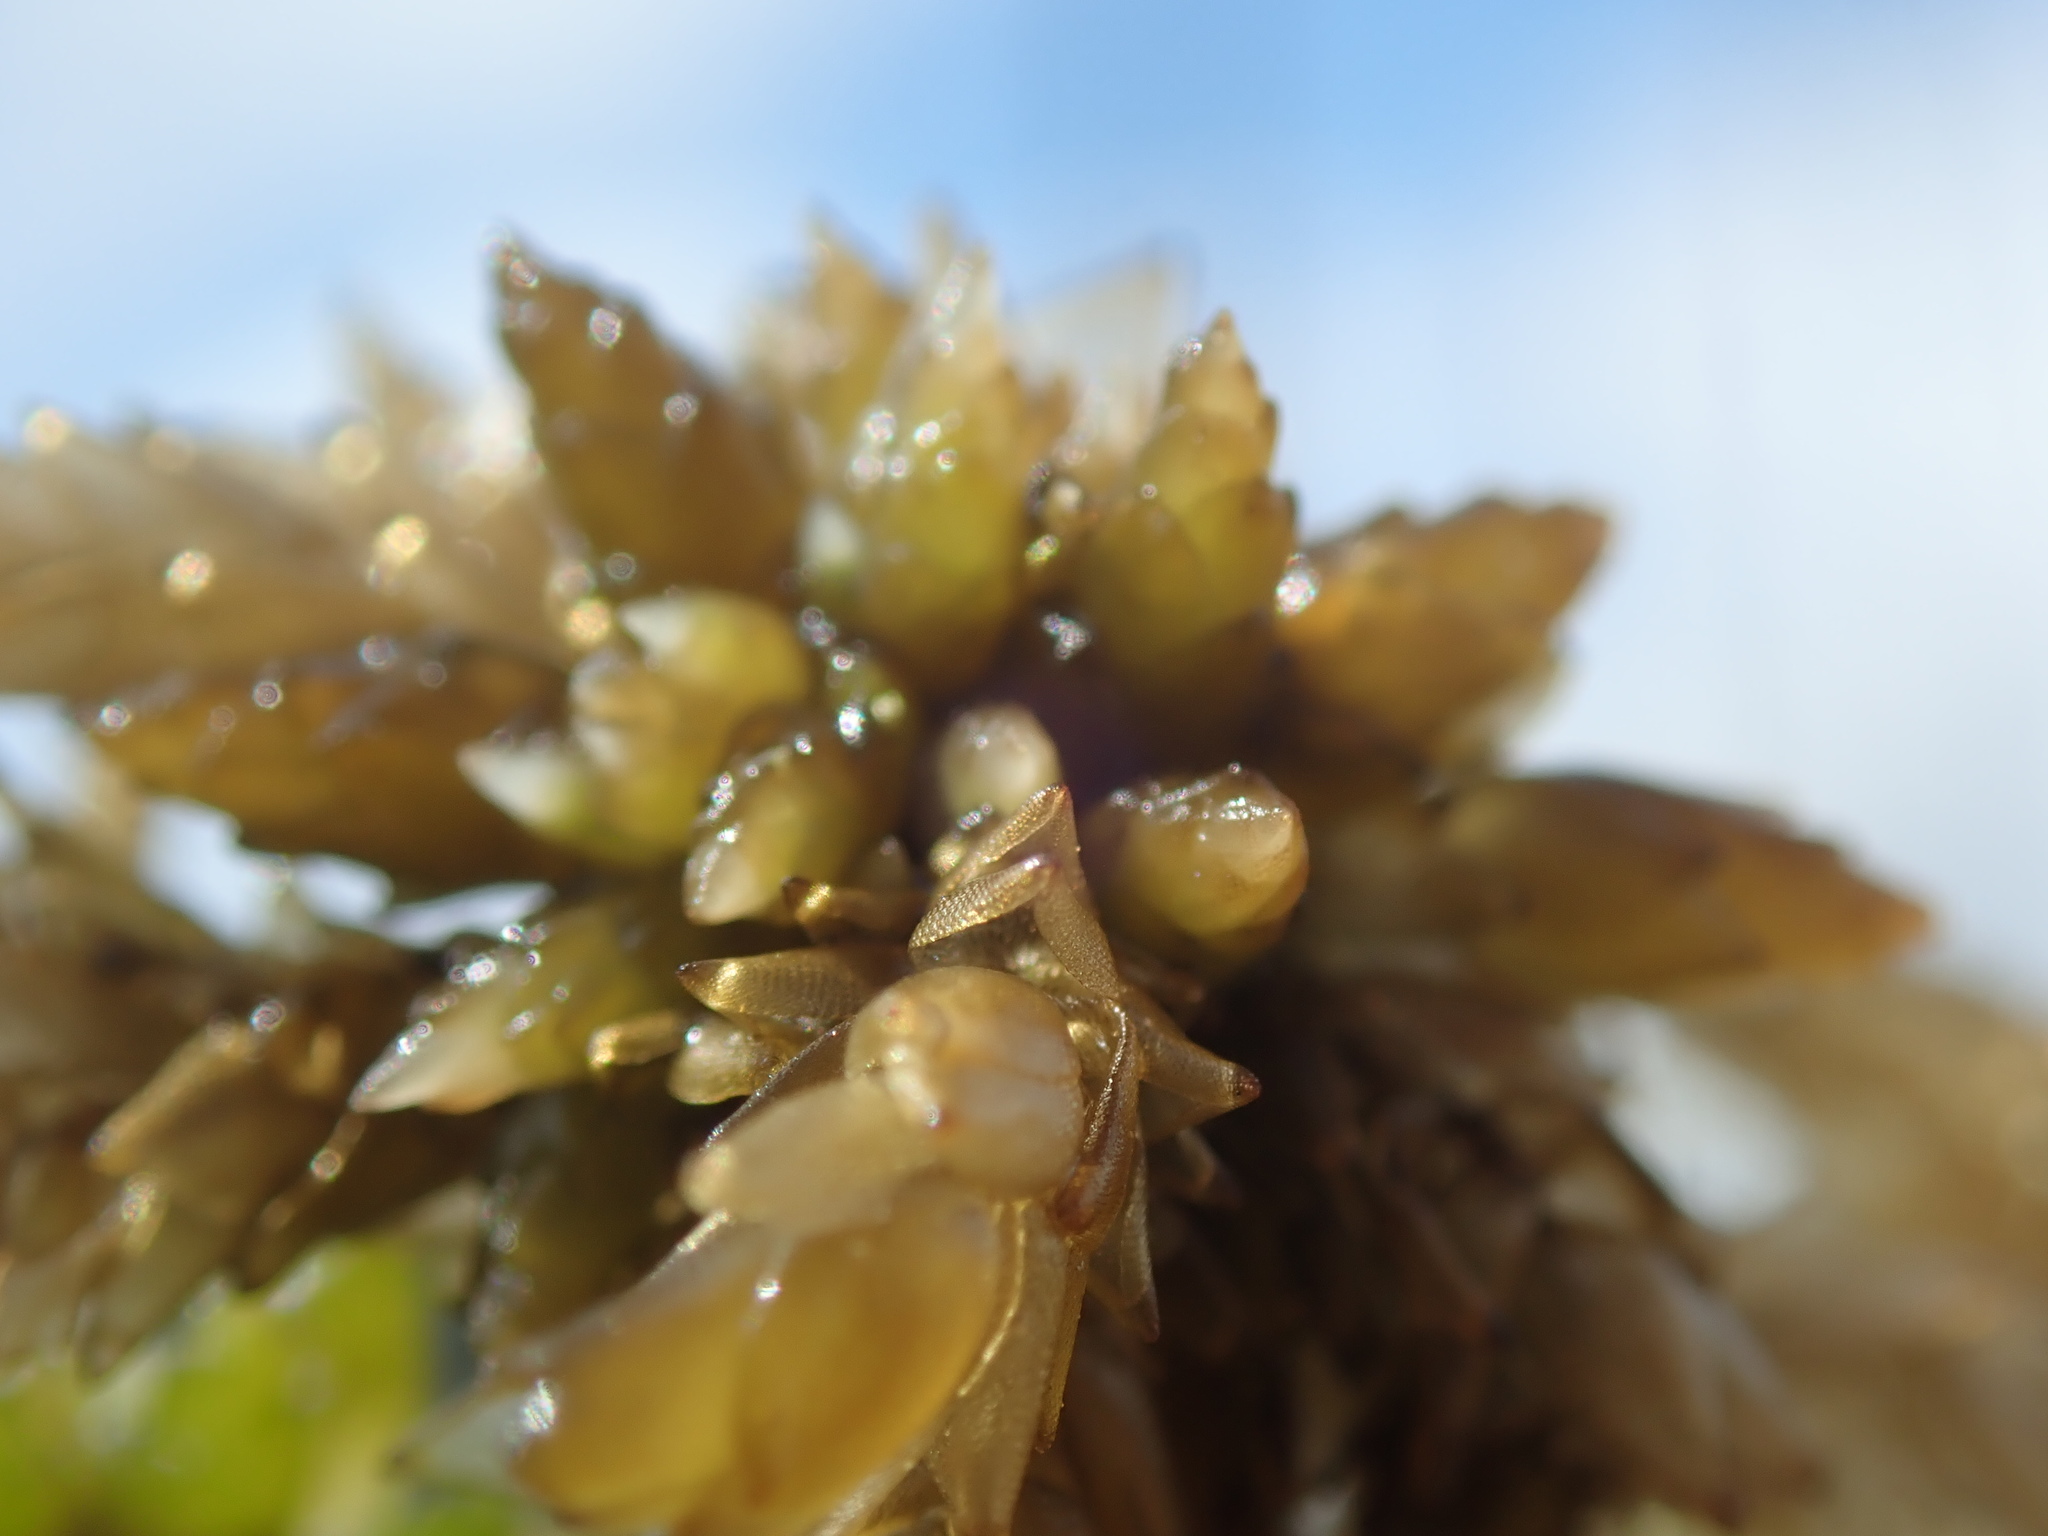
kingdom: Plantae
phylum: Bryophyta
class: Sphagnopsida
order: Sphagnales
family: Sphagnaceae
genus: Sphagnum
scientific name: Sphagnum papillosum
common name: Papillose peat moss
